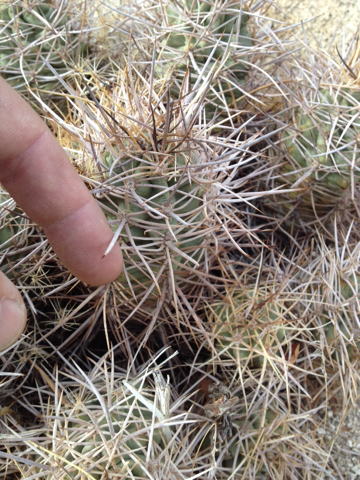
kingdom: Plantae
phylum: Tracheophyta
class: Magnoliopsida
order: Caryophyllales
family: Cactaceae
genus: Echinocereus
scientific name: Echinocereus triglochidiatus
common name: Claretcup hedgehog
